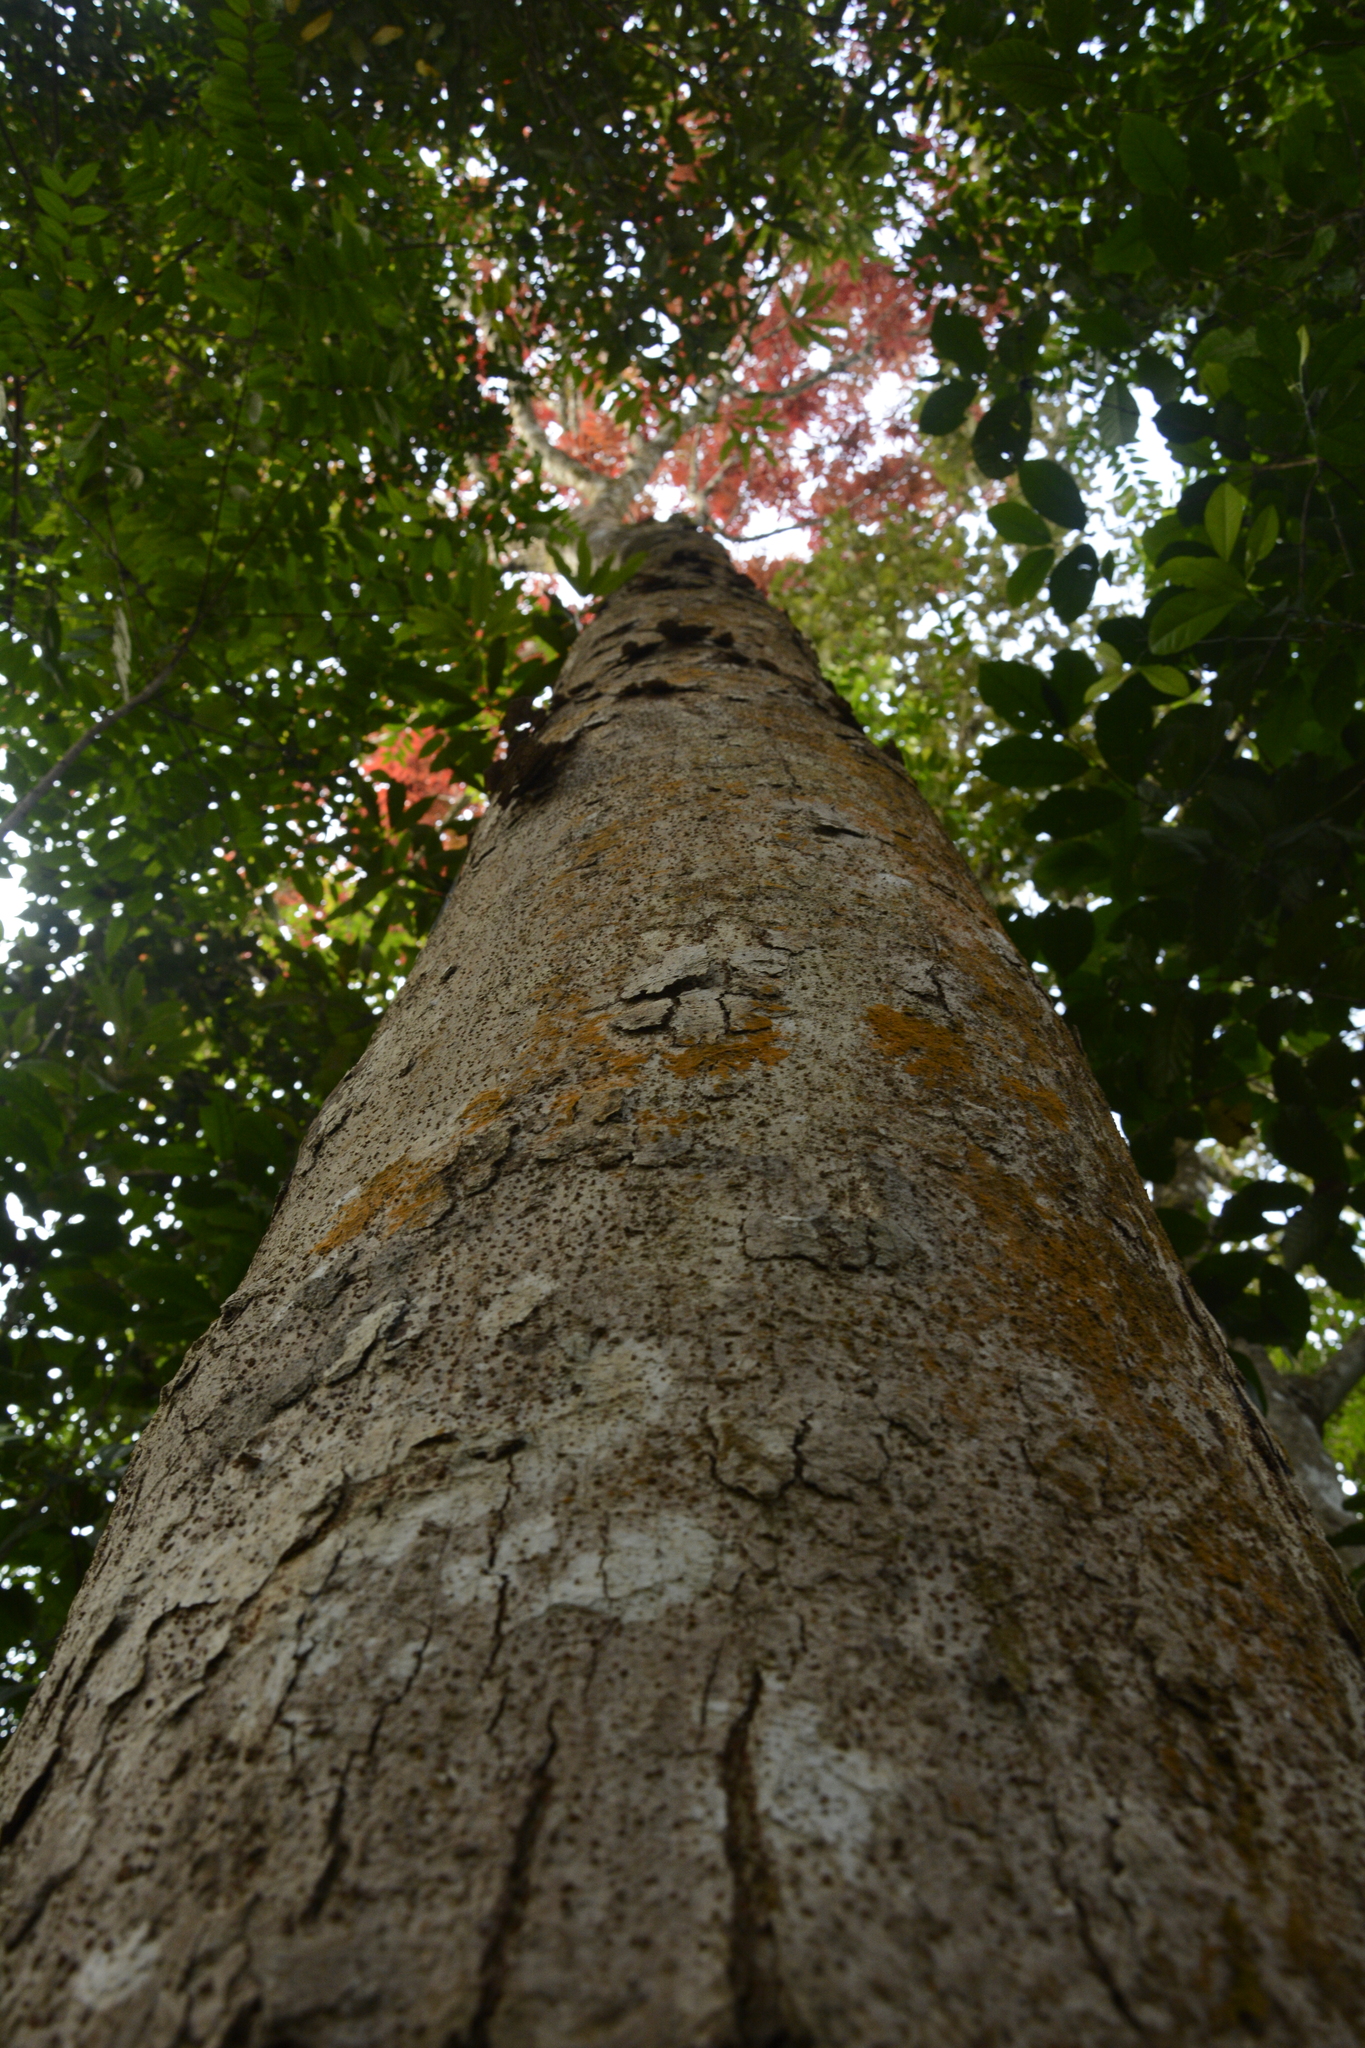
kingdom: Plantae
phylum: Tracheophyta
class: Magnoliopsida
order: Sapindales
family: Burseraceae
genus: Canarium
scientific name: Canarium strictum
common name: Indian white-mahogany
